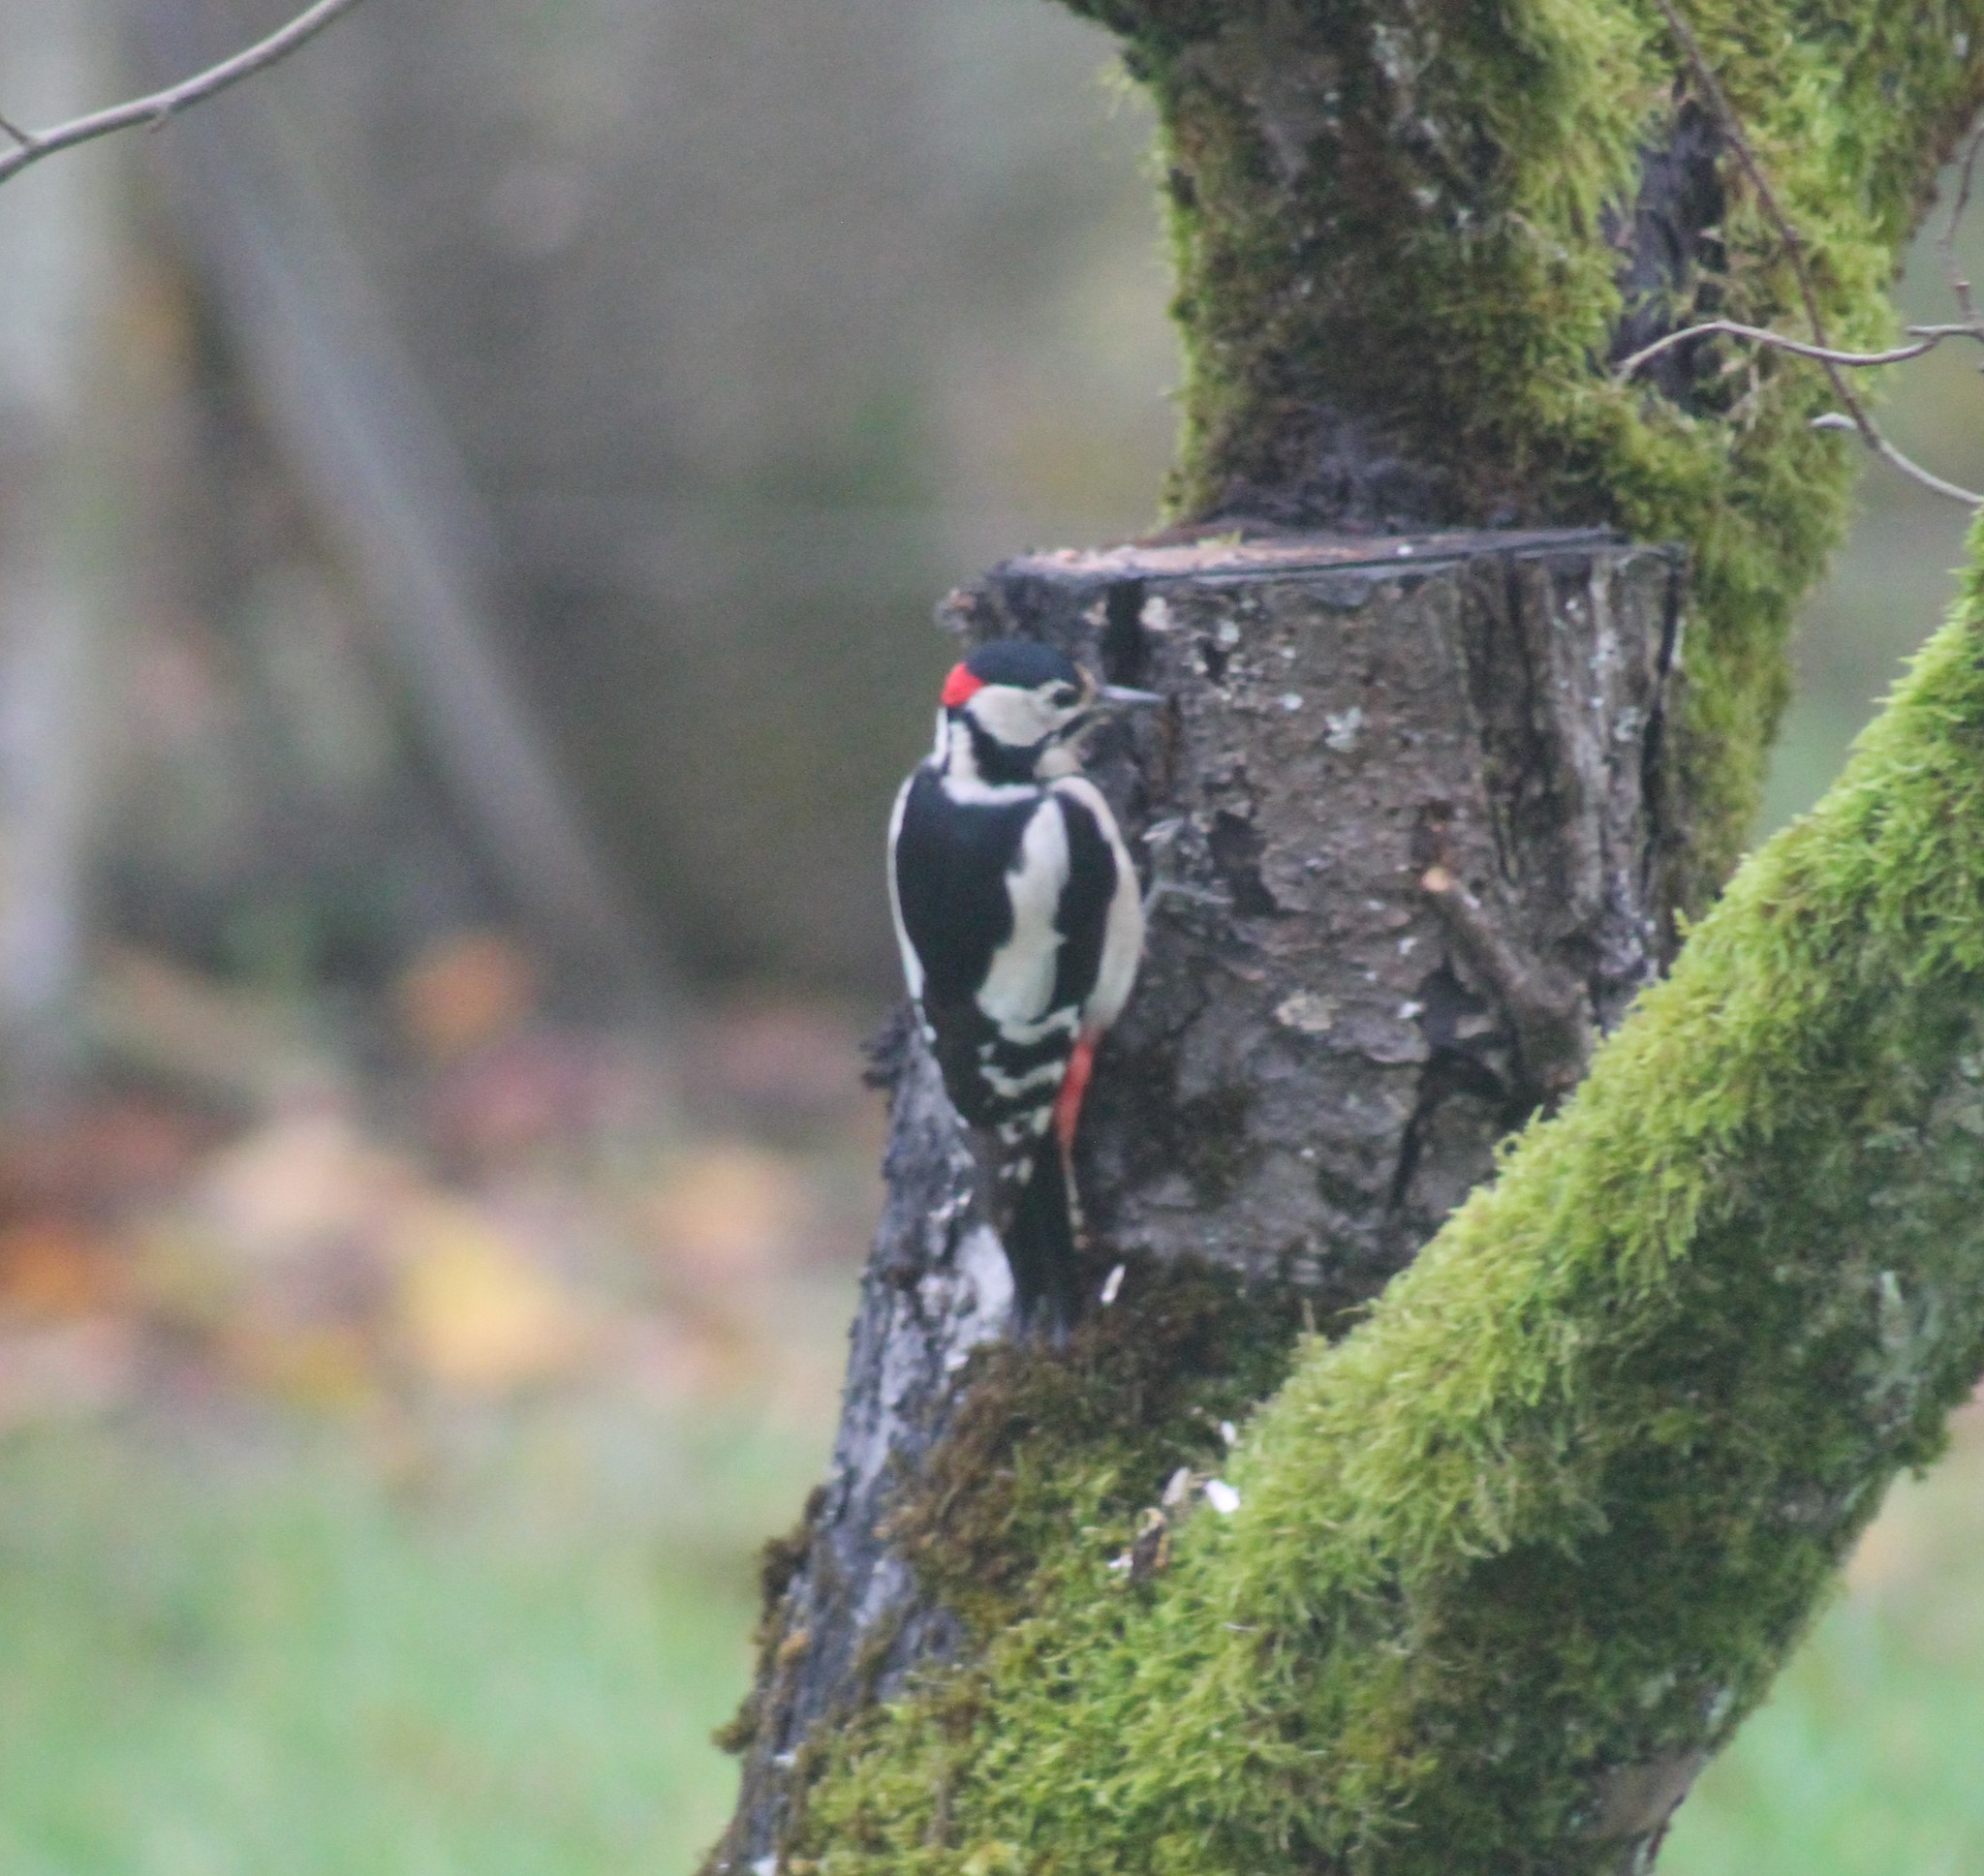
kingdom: Animalia
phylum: Chordata
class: Aves
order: Piciformes
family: Picidae
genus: Dendrocopos
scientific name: Dendrocopos major
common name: Great spotted woodpecker
